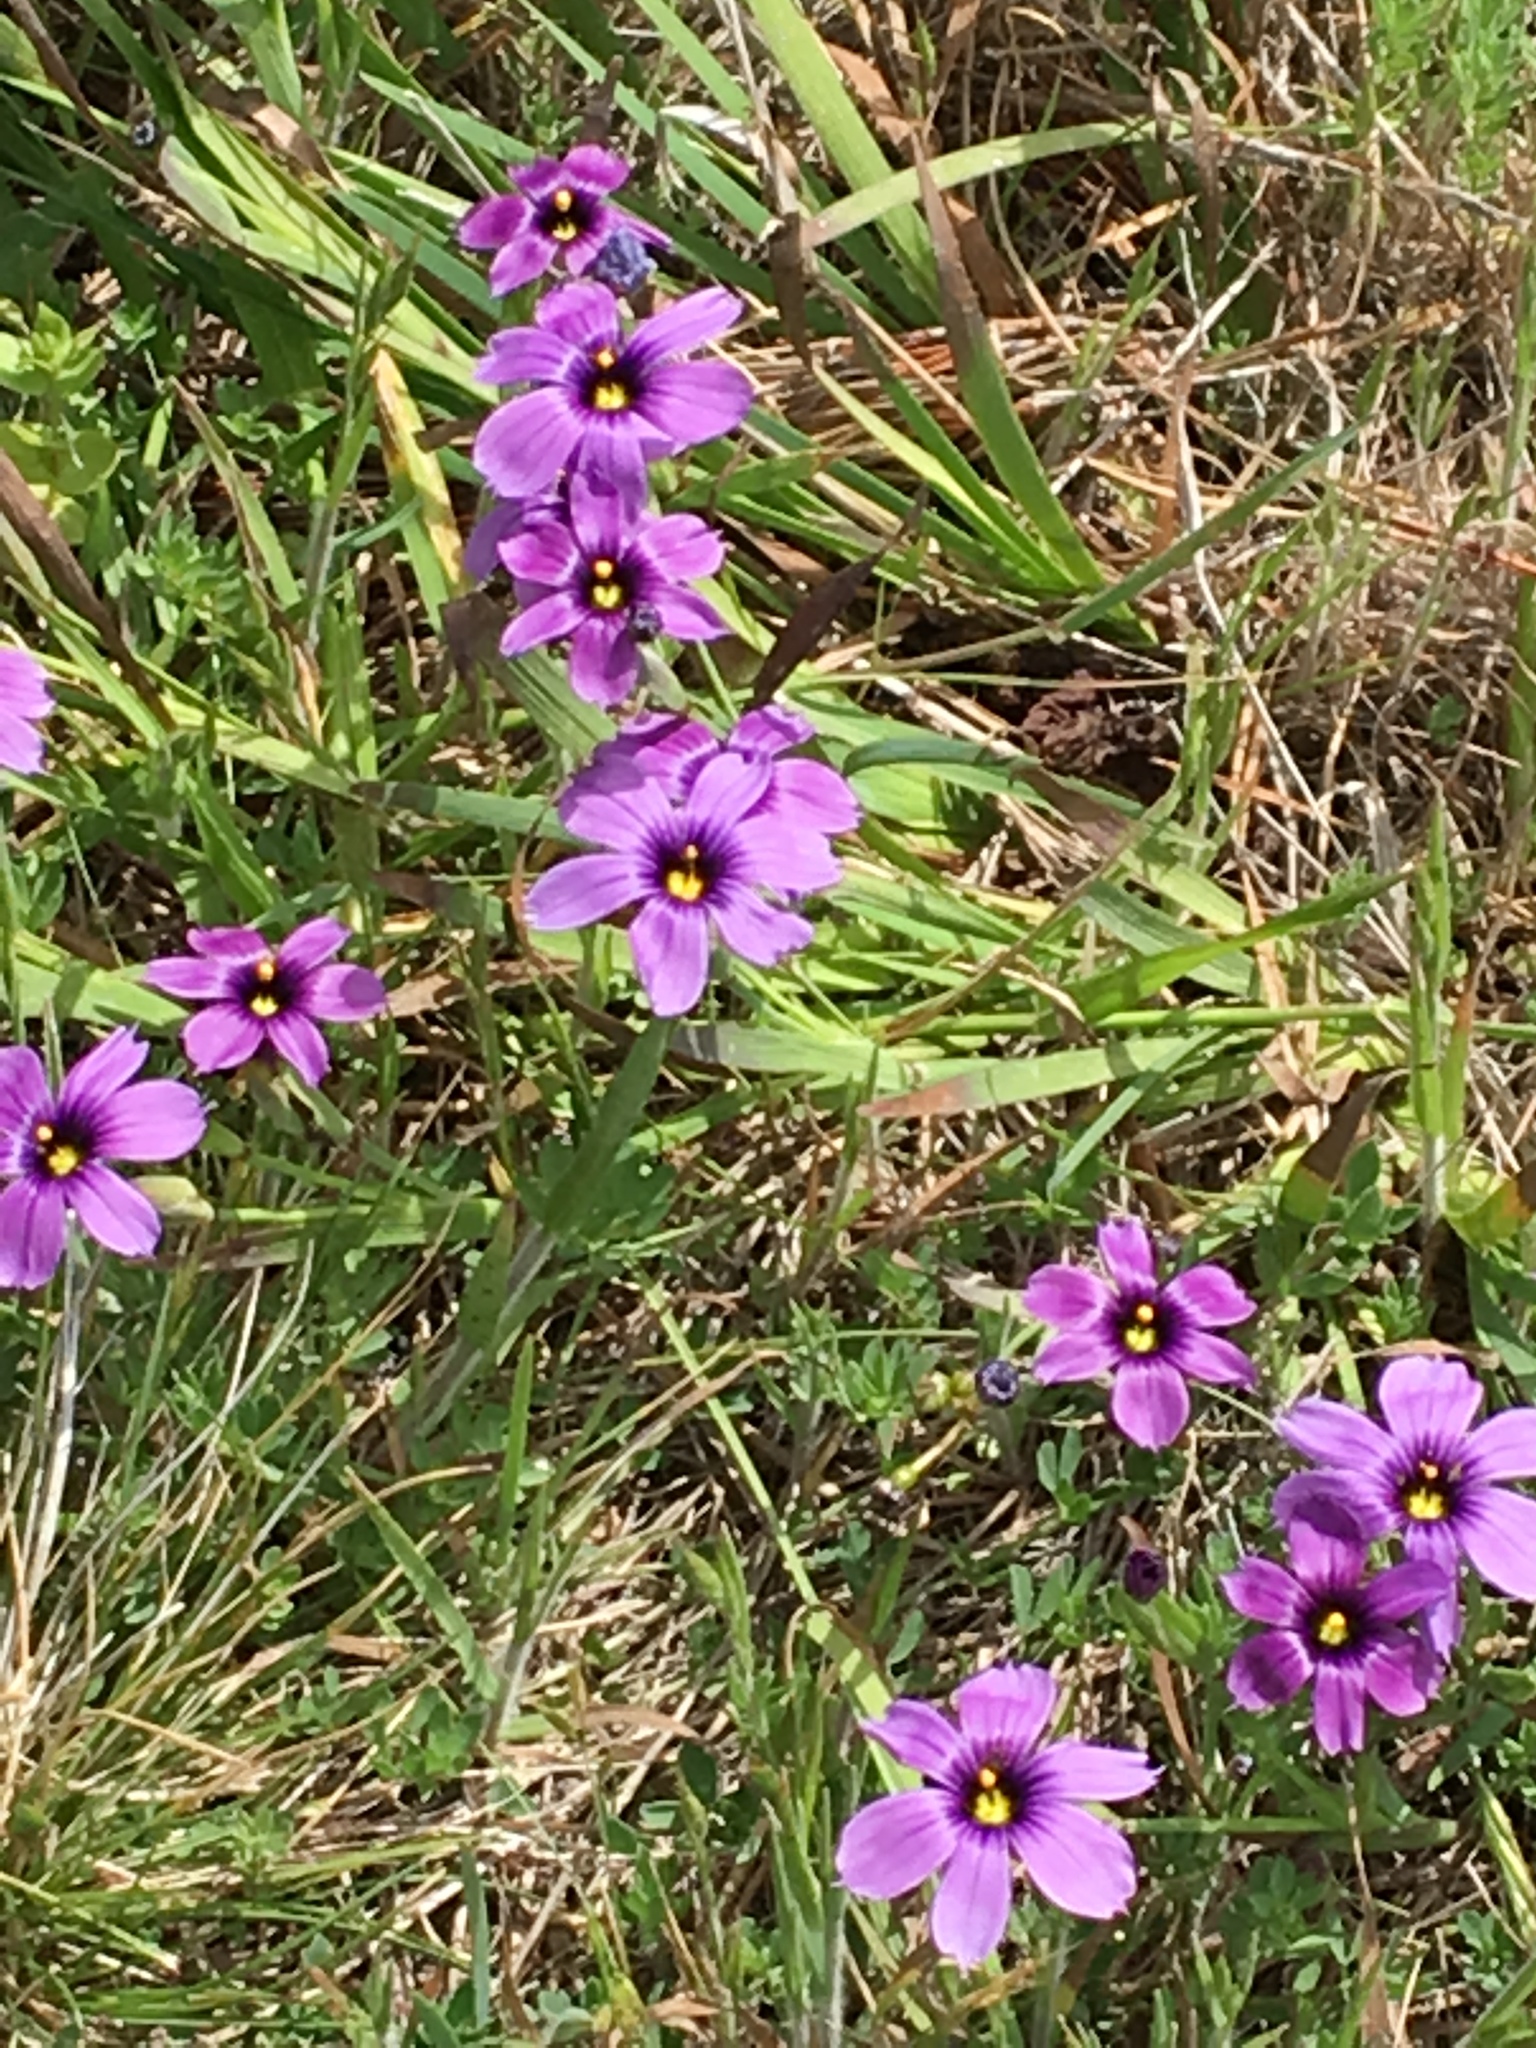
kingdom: Plantae
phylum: Tracheophyta
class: Liliopsida
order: Asparagales
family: Iridaceae
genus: Sisyrinchium
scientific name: Sisyrinchium bellum
